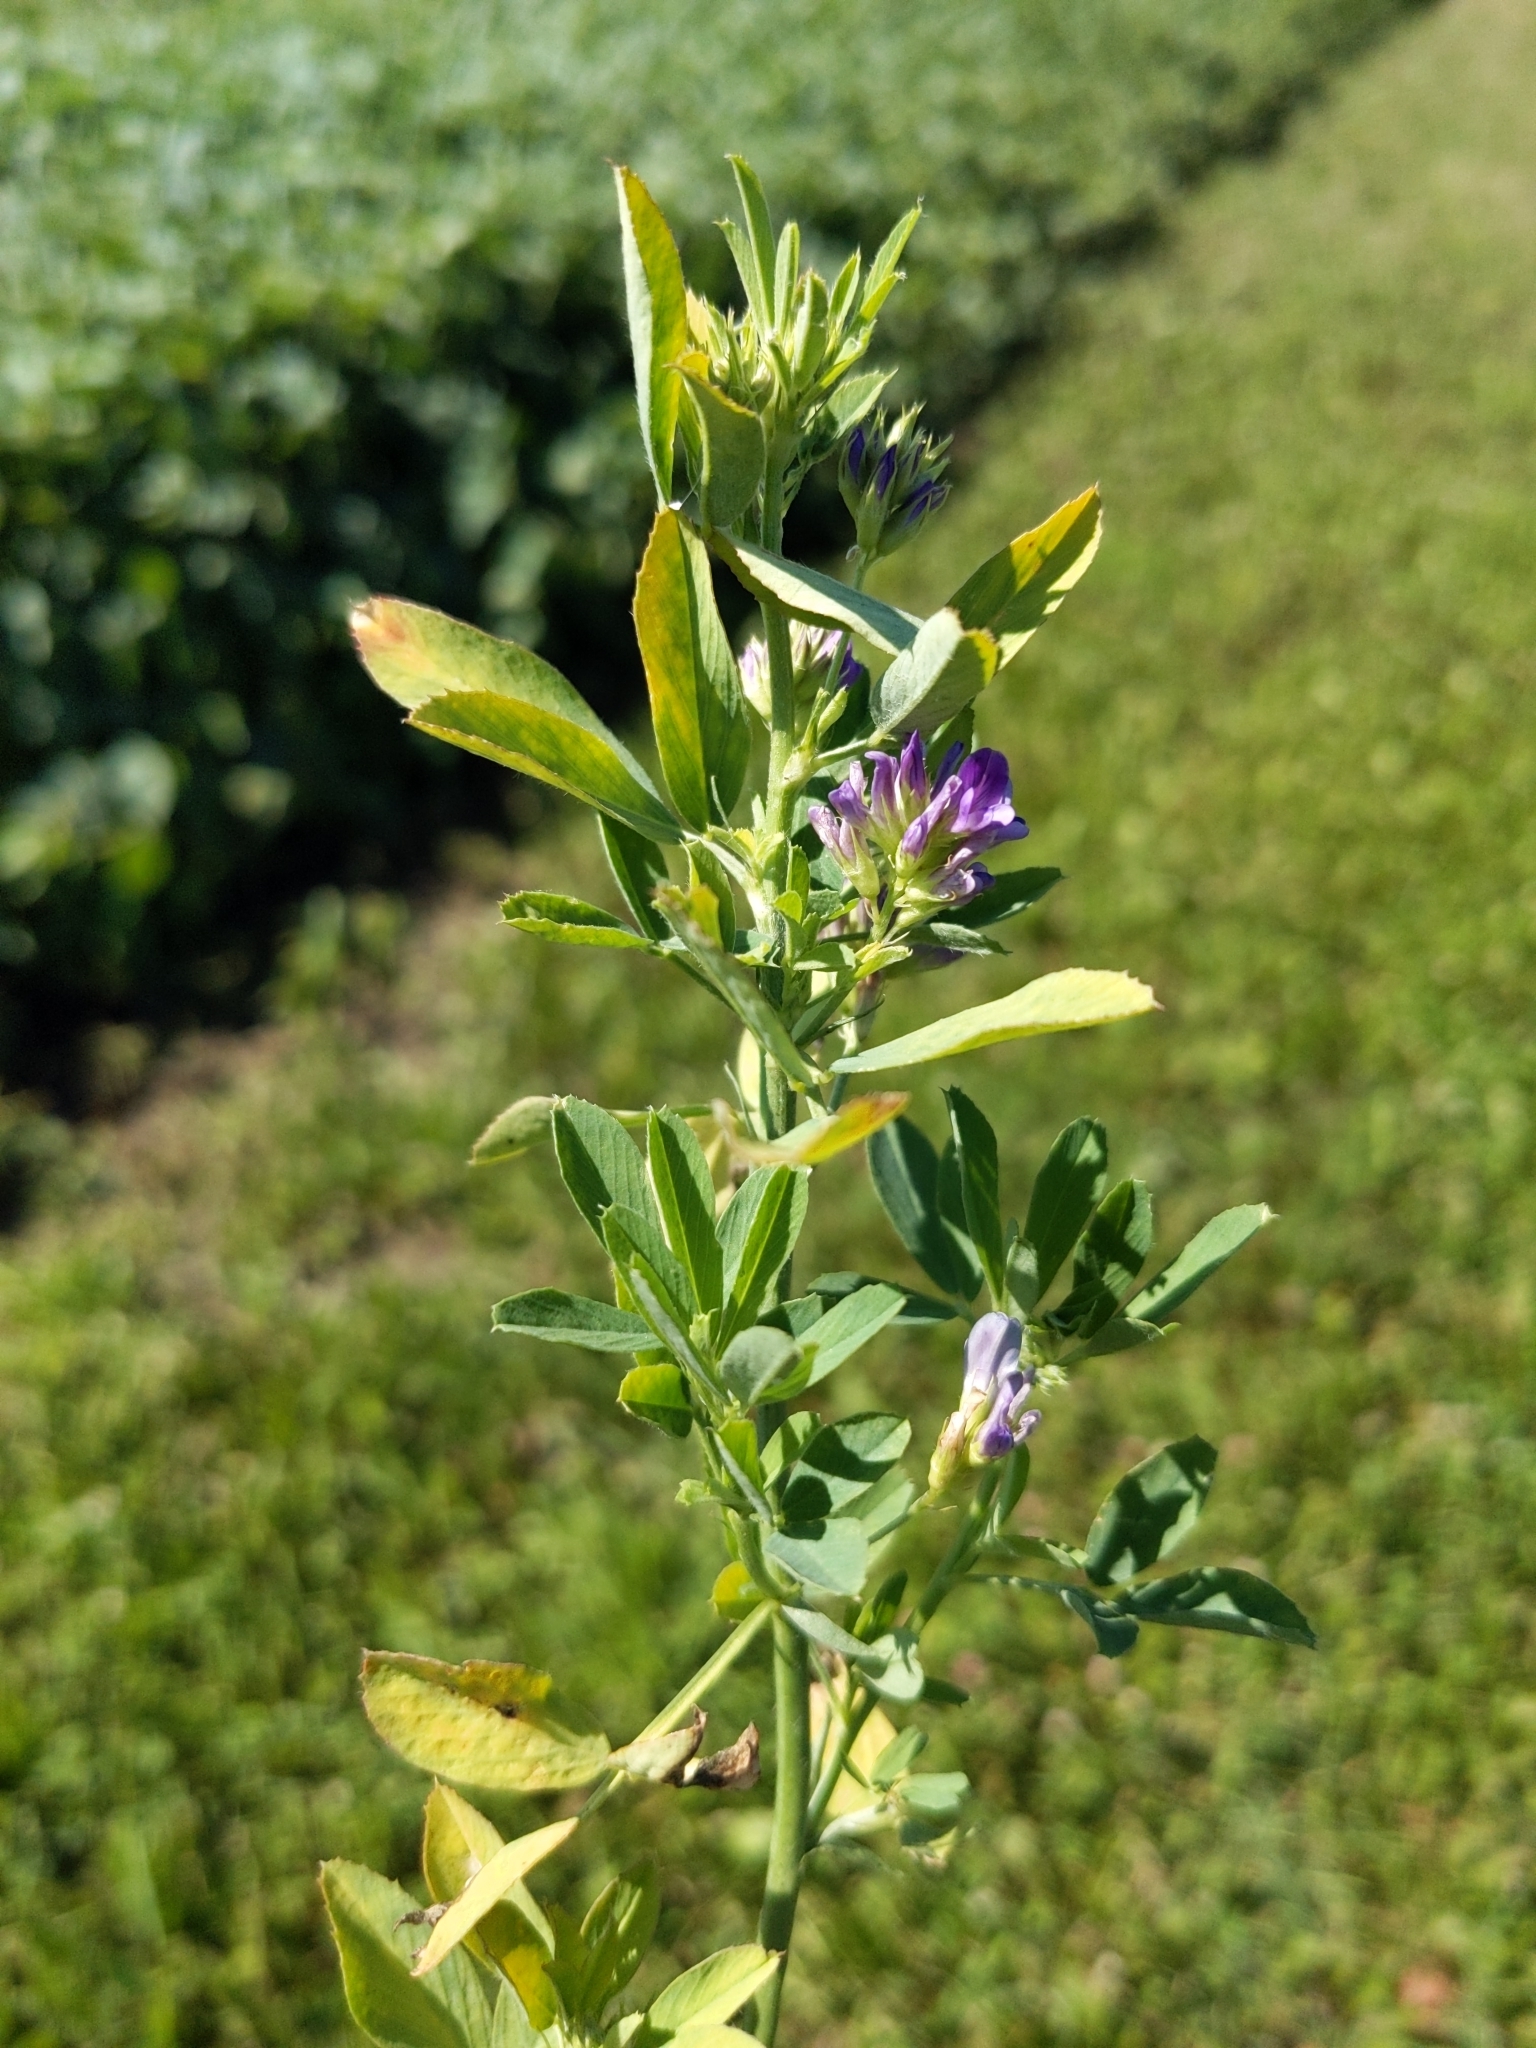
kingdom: Plantae
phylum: Tracheophyta
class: Magnoliopsida
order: Fabales
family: Fabaceae
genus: Medicago
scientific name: Medicago sativa
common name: Alfalfa
